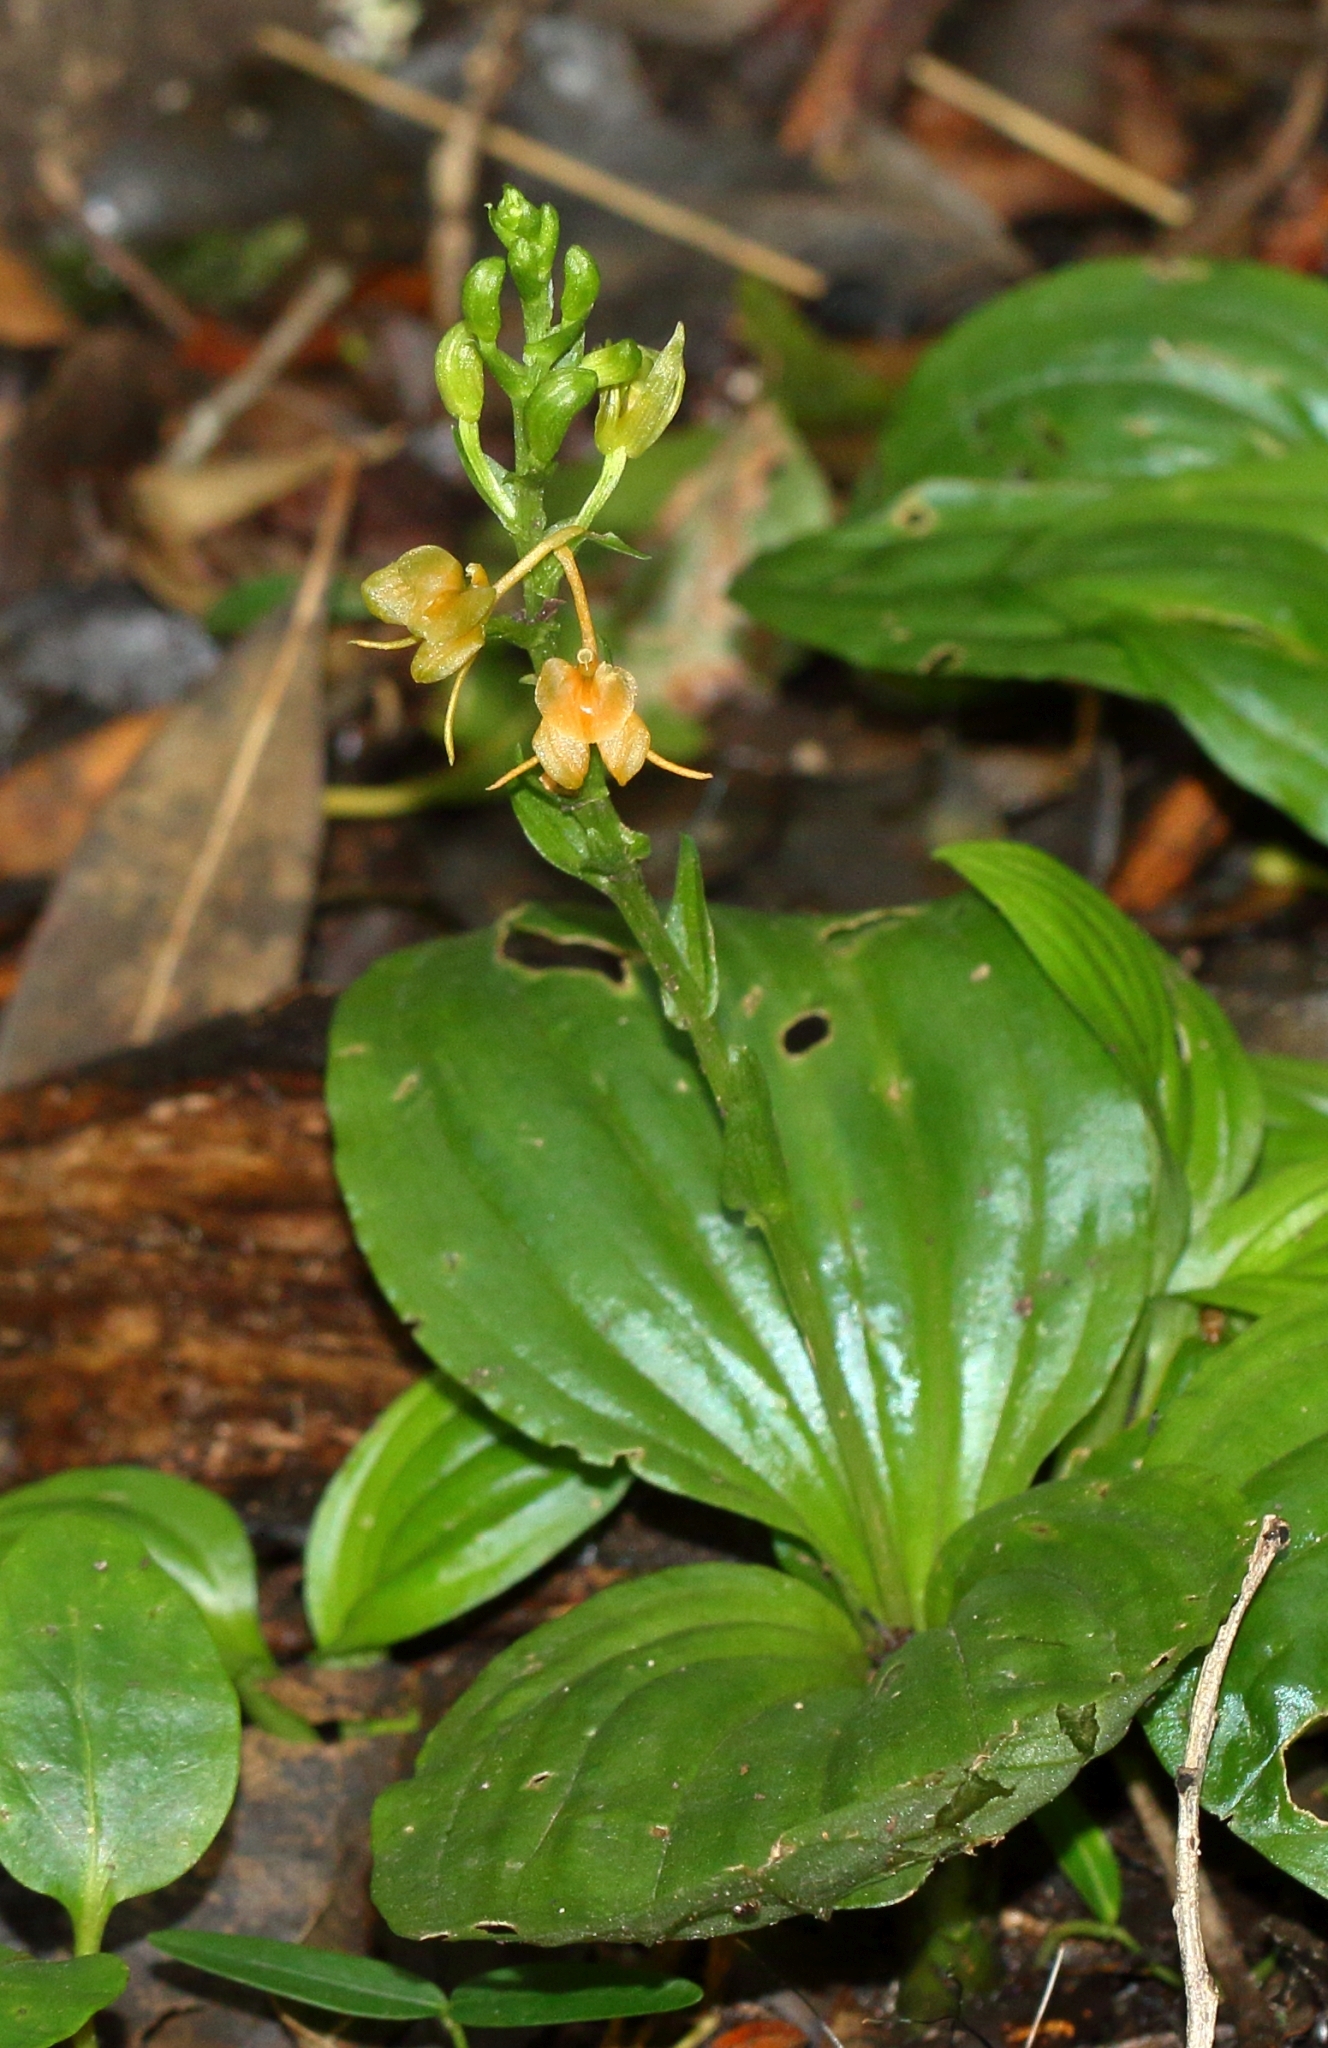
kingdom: Plantae
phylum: Tracheophyta
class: Liliopsida
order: Asparagales
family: Orchidaceae
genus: Liparis
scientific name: Liparis bowkeri
